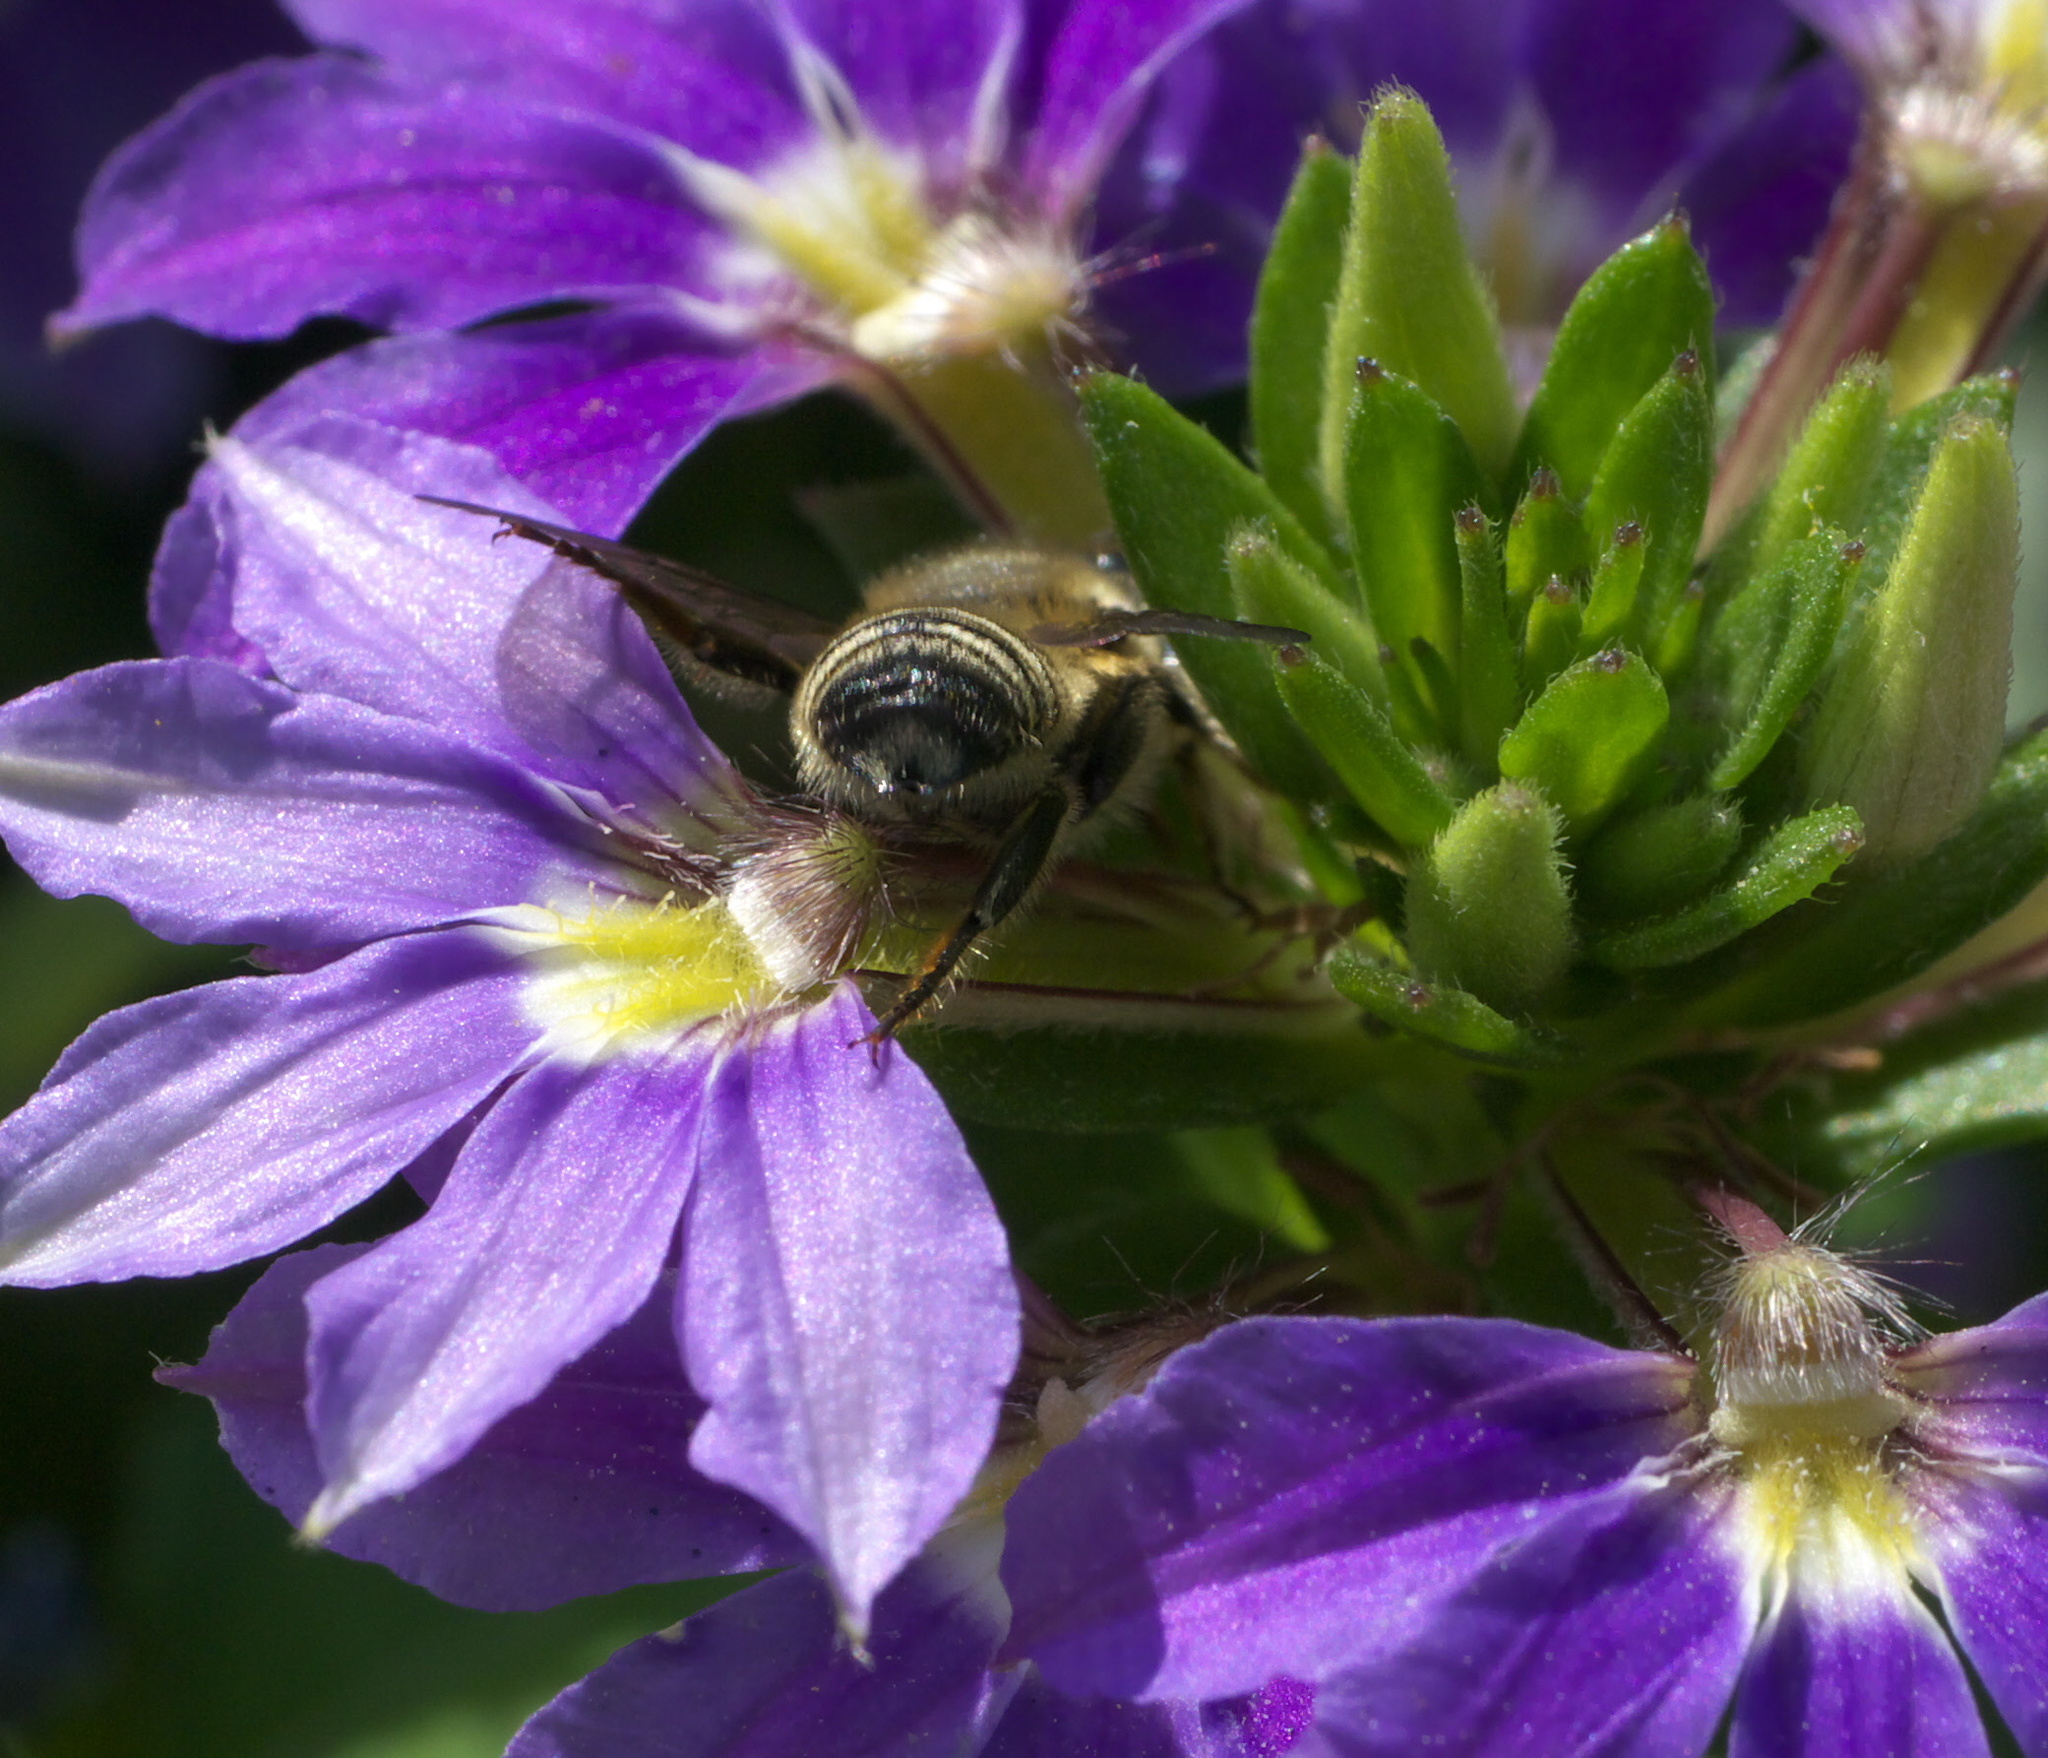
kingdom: Animalia
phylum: Arthropoda
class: Insecta
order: Hymenoptera
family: Megachilidae
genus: Megachile
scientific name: Megachile mendica
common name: Flat-tailed leafcutter
